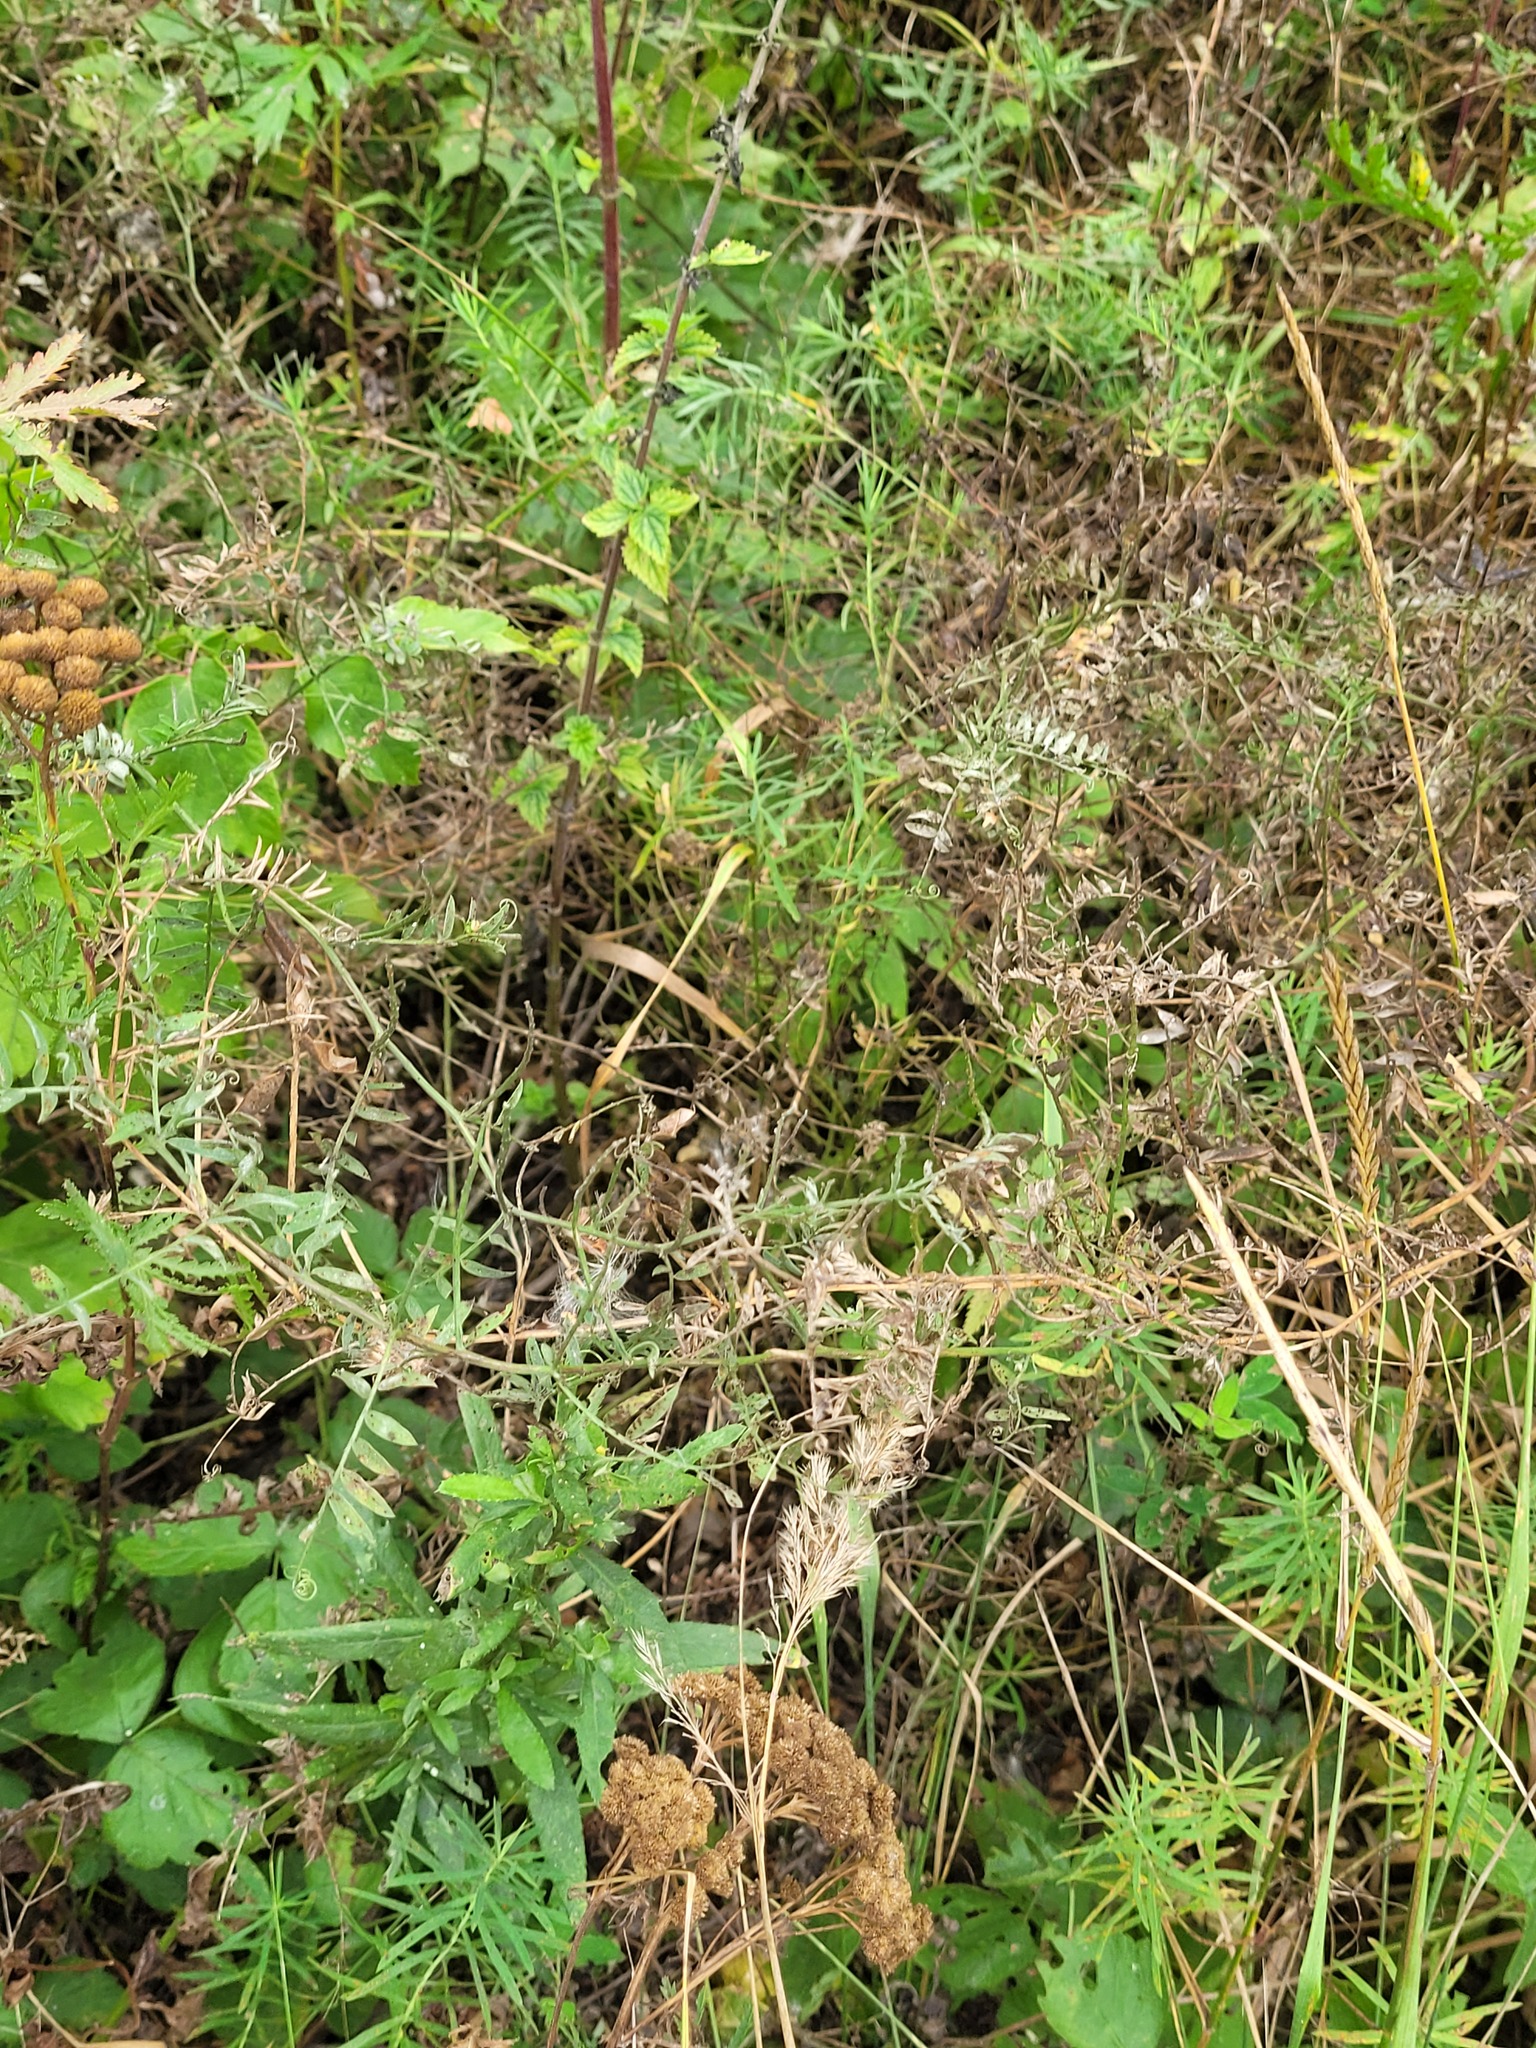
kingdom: Plantae
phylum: Tracheophyta
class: Magnoliopsida
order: Fabales
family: Fabaceae
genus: Vicia
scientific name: Vicia cracca
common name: Bird vetch
